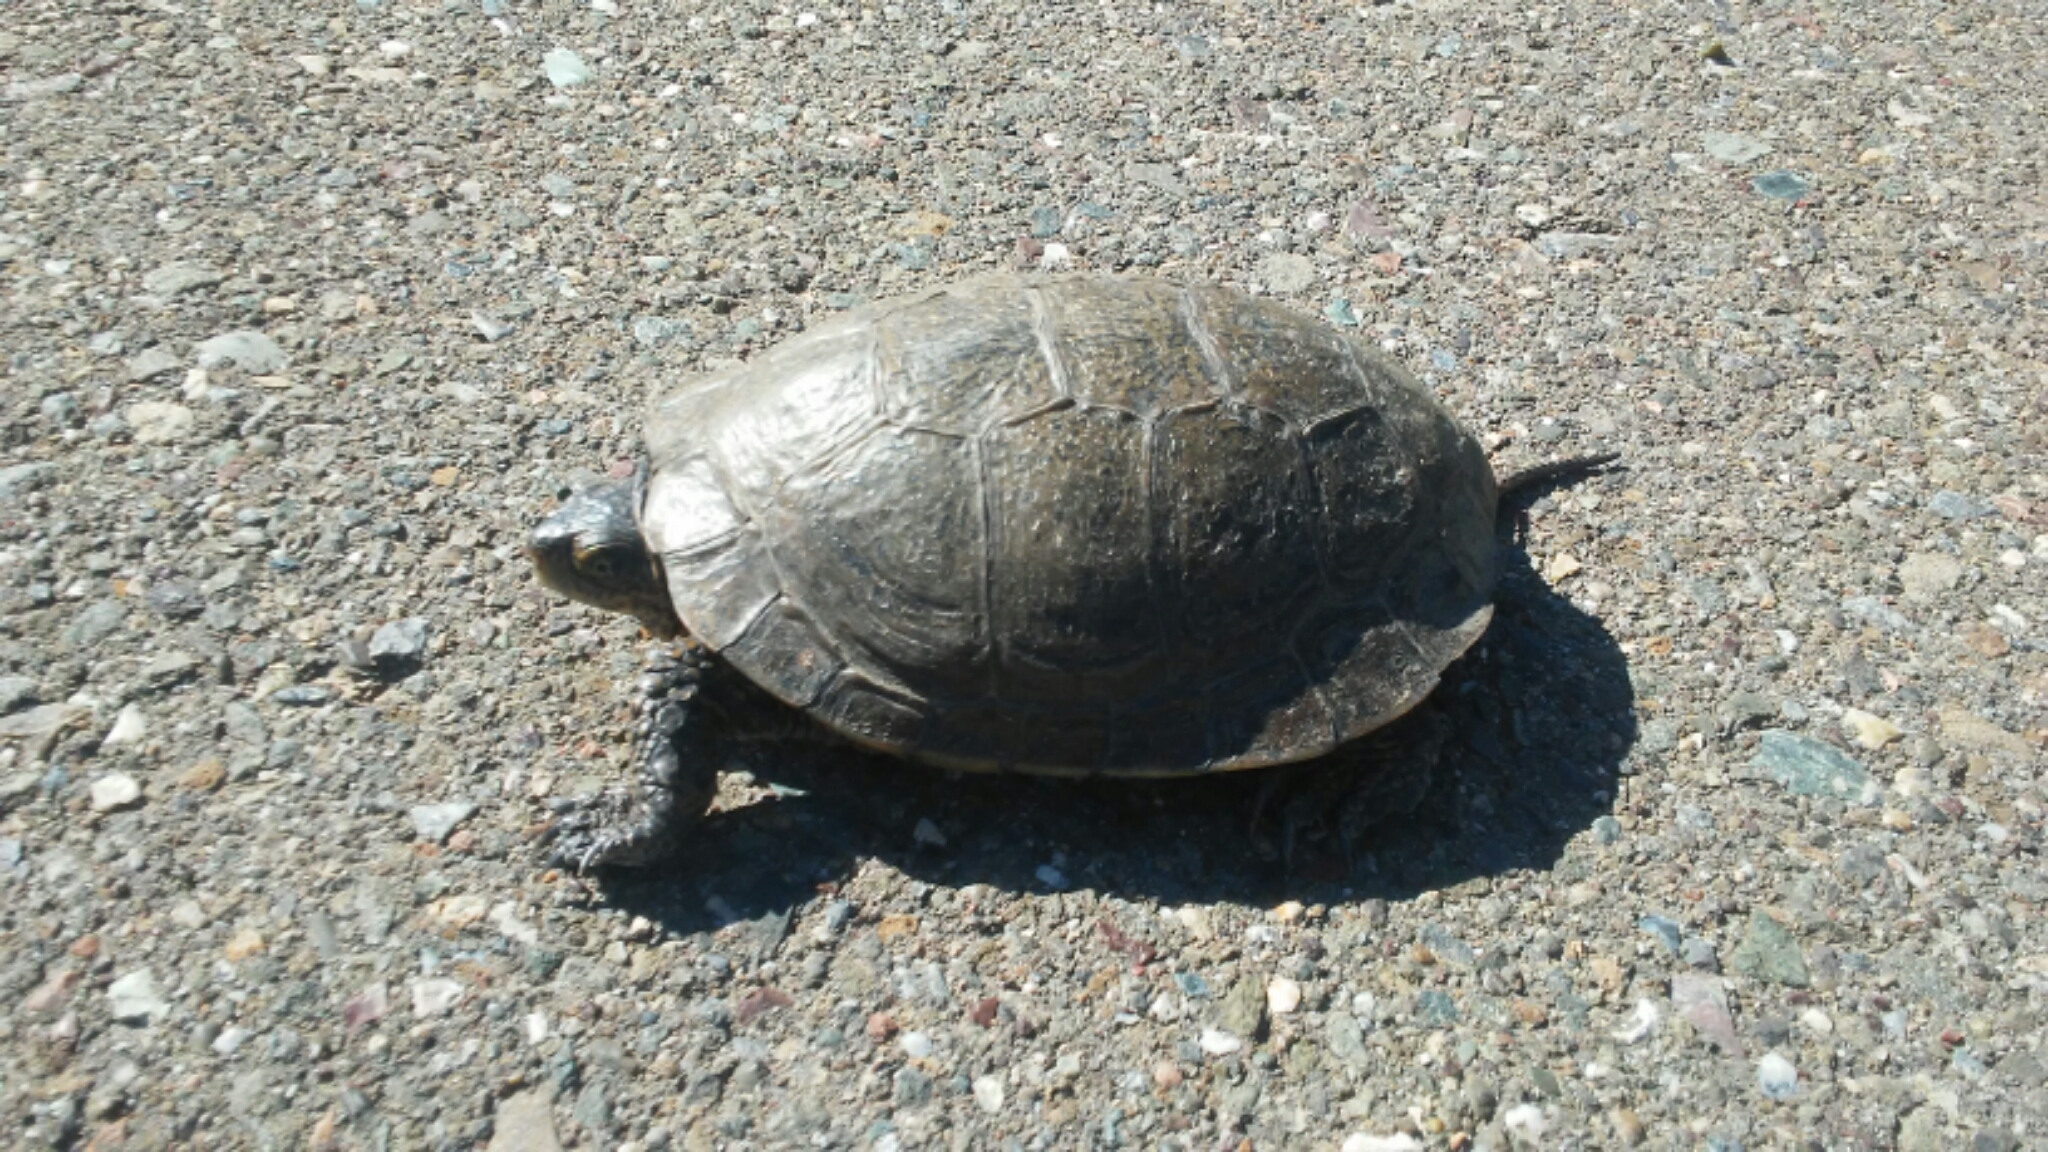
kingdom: Animalia
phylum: Chordata
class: Testudines
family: Emydidae
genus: Actinemys
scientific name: Actinemys marmorata
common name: Western pond turtle
